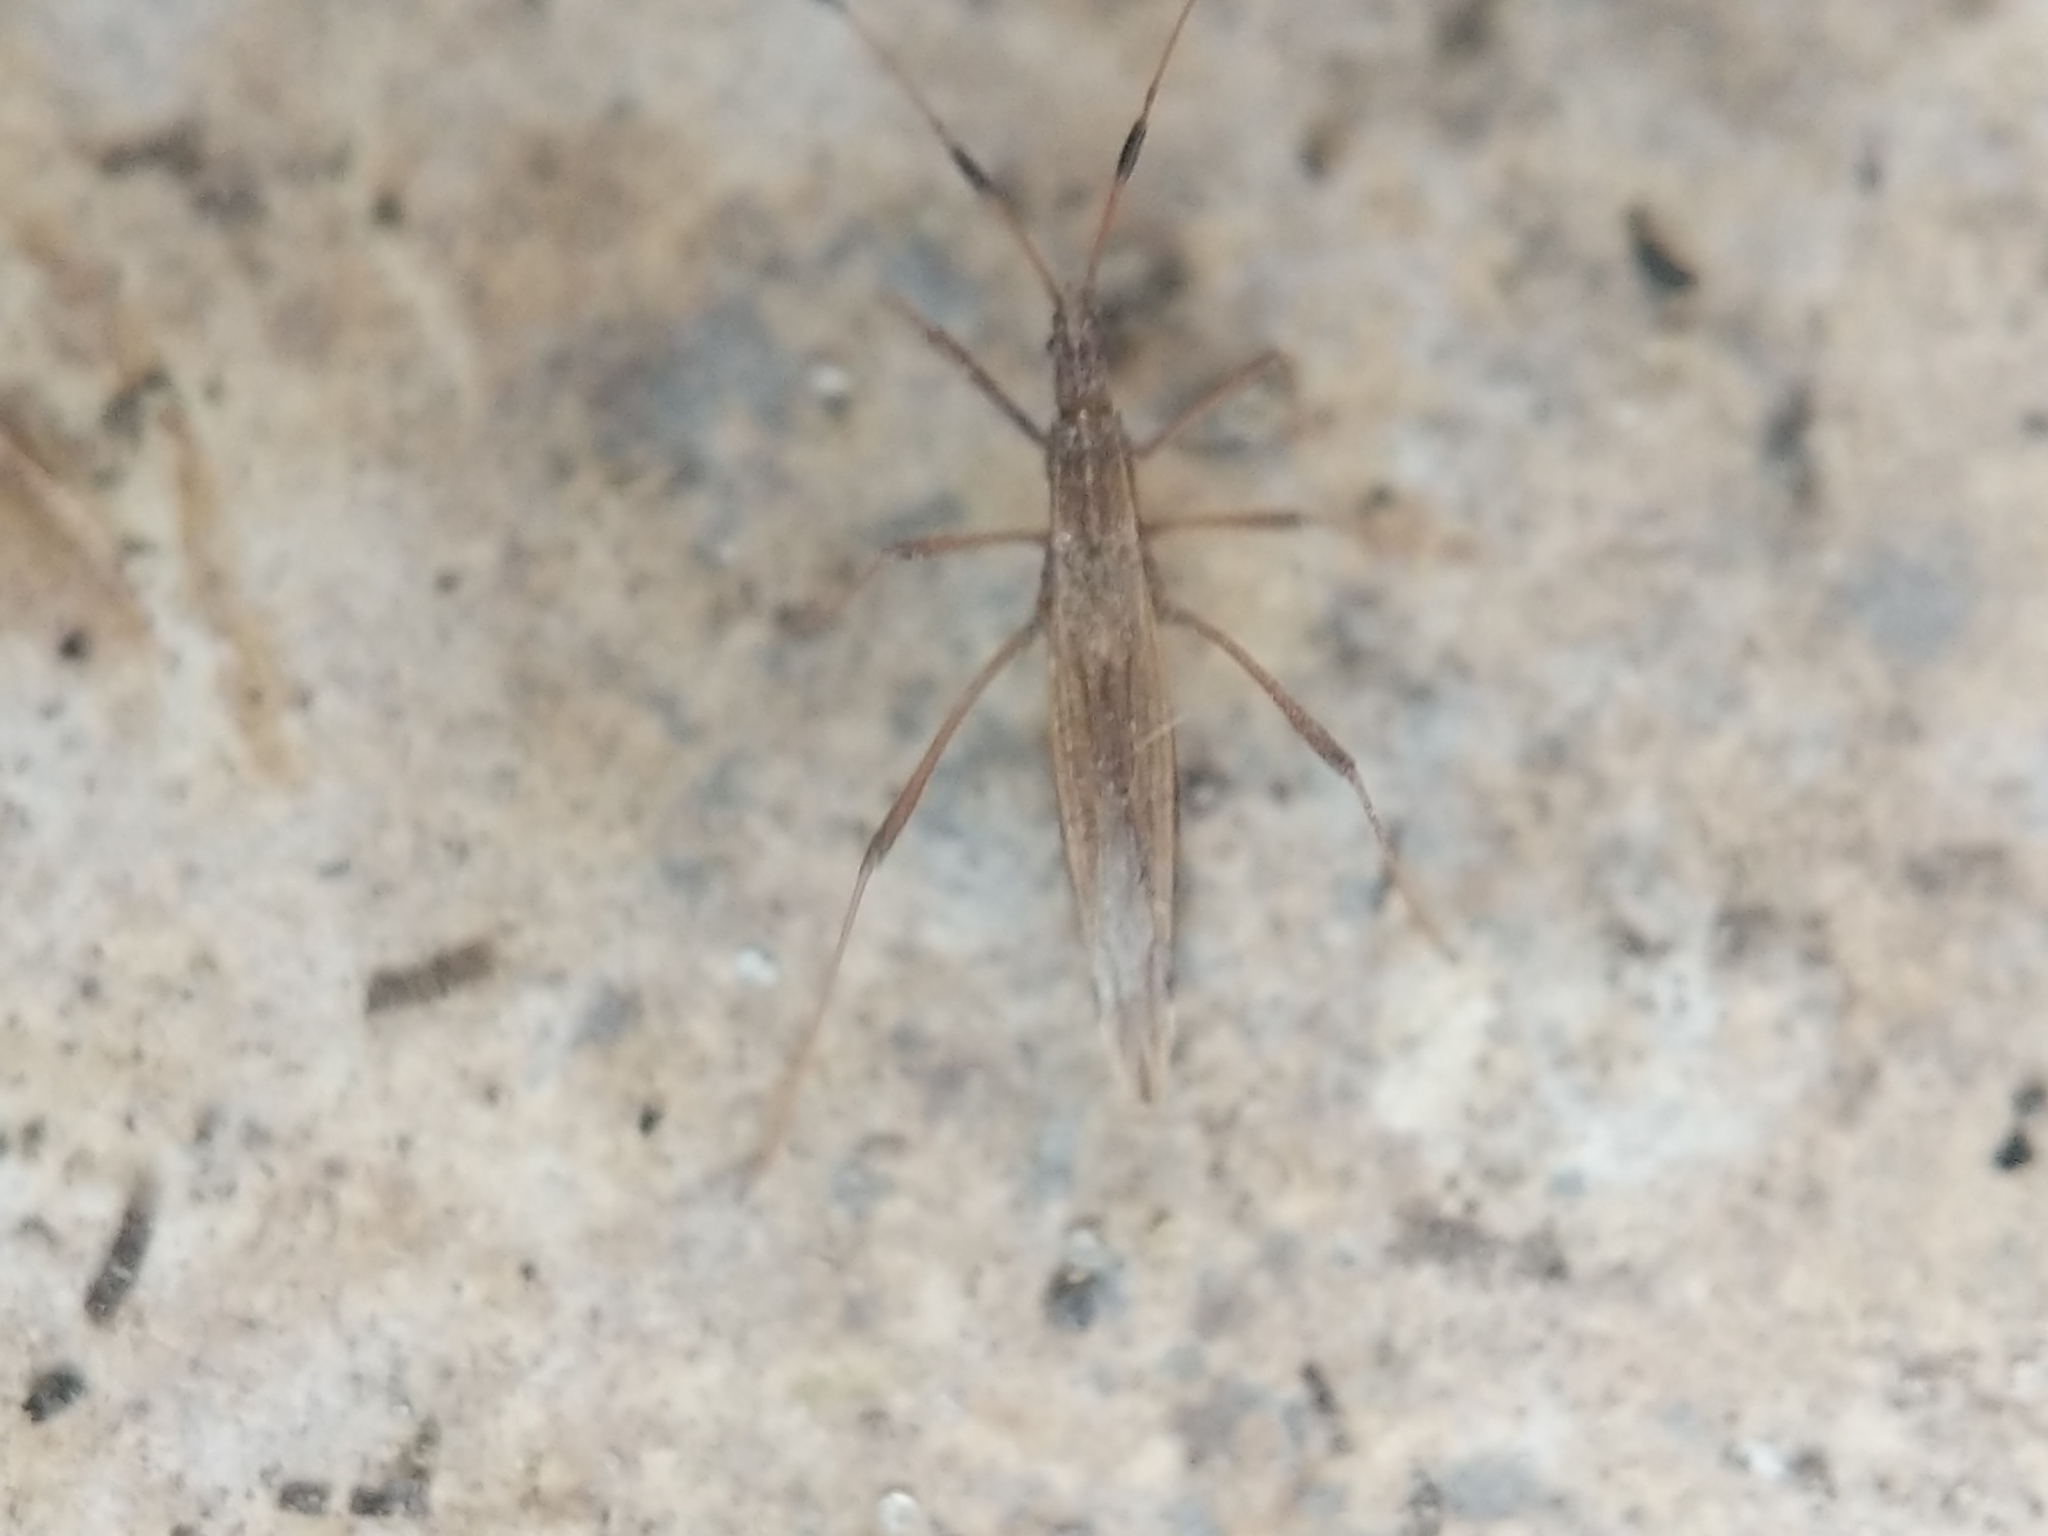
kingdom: Animalia
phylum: Arthropoda
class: Insecta
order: Hemiptera
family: Berytidae
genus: Berytinus
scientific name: Berytinus minor
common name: Stilt bug
